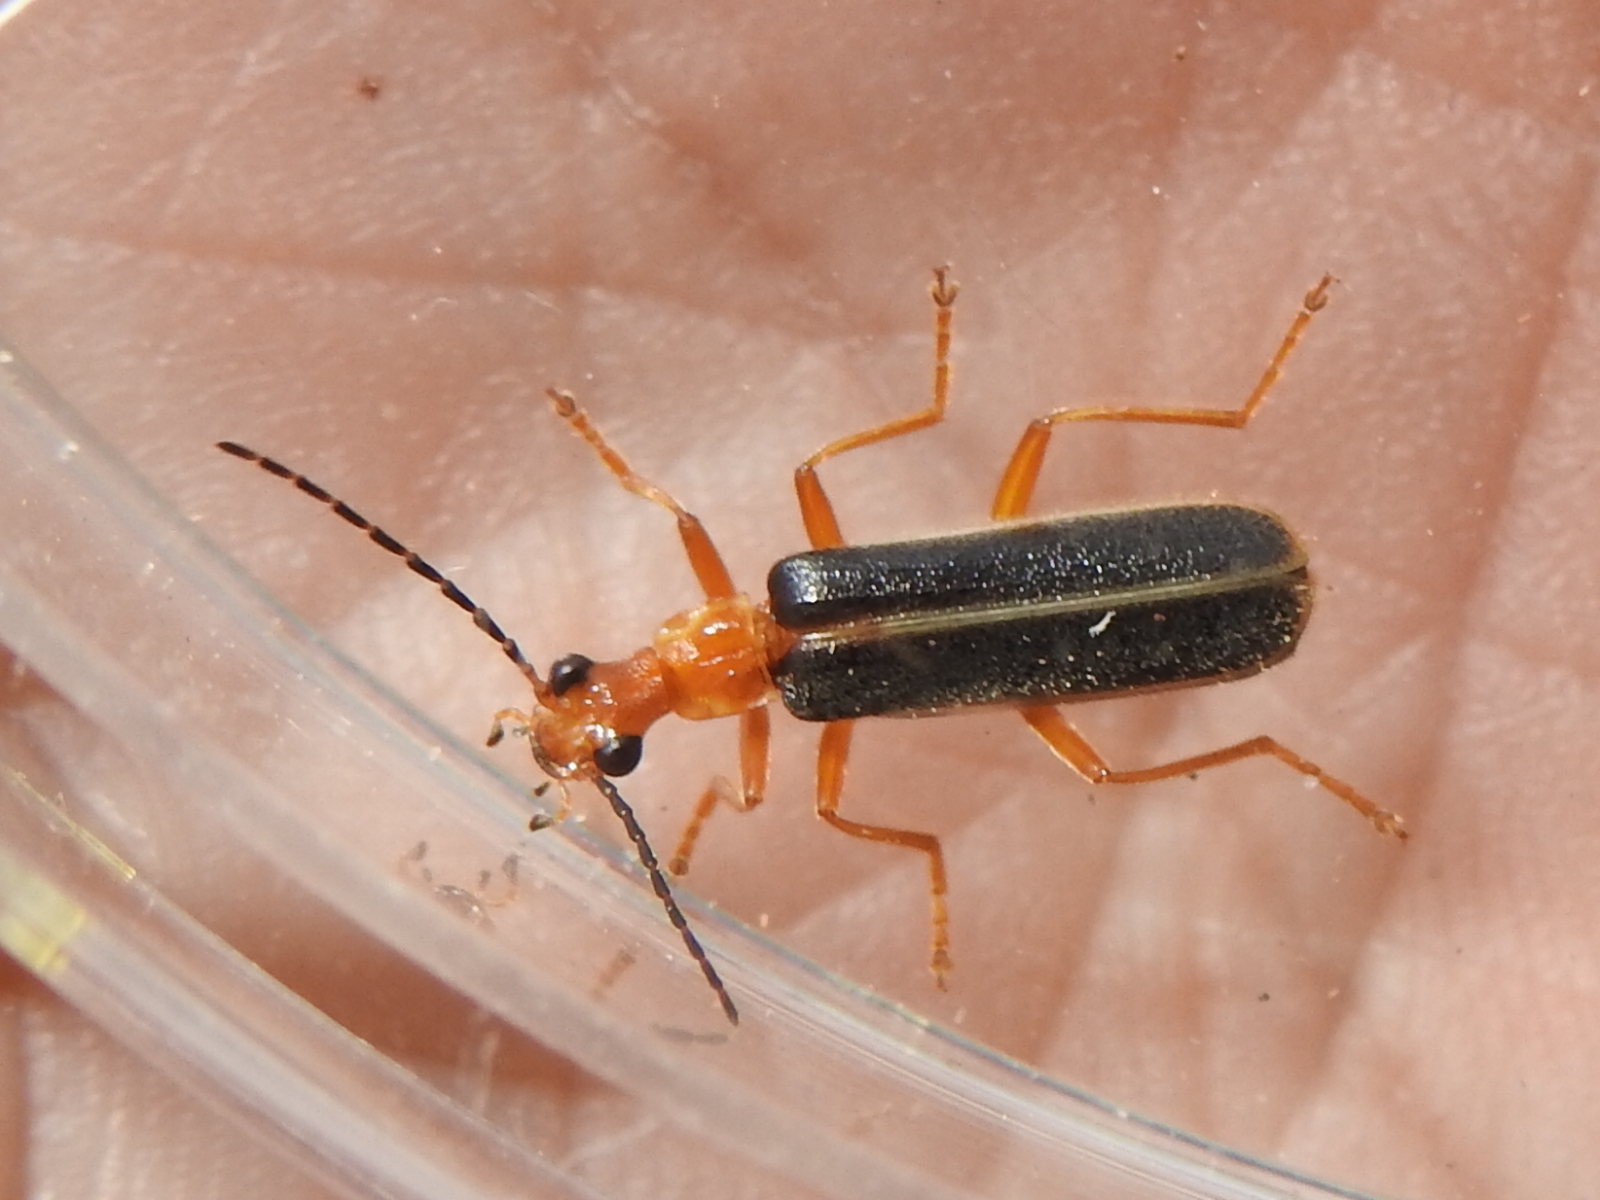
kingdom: Animalia
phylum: Arthropoda
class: Insecta
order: Coleoptera
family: Cantharidae
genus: Podabrus
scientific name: Podabrus brunnicollis
